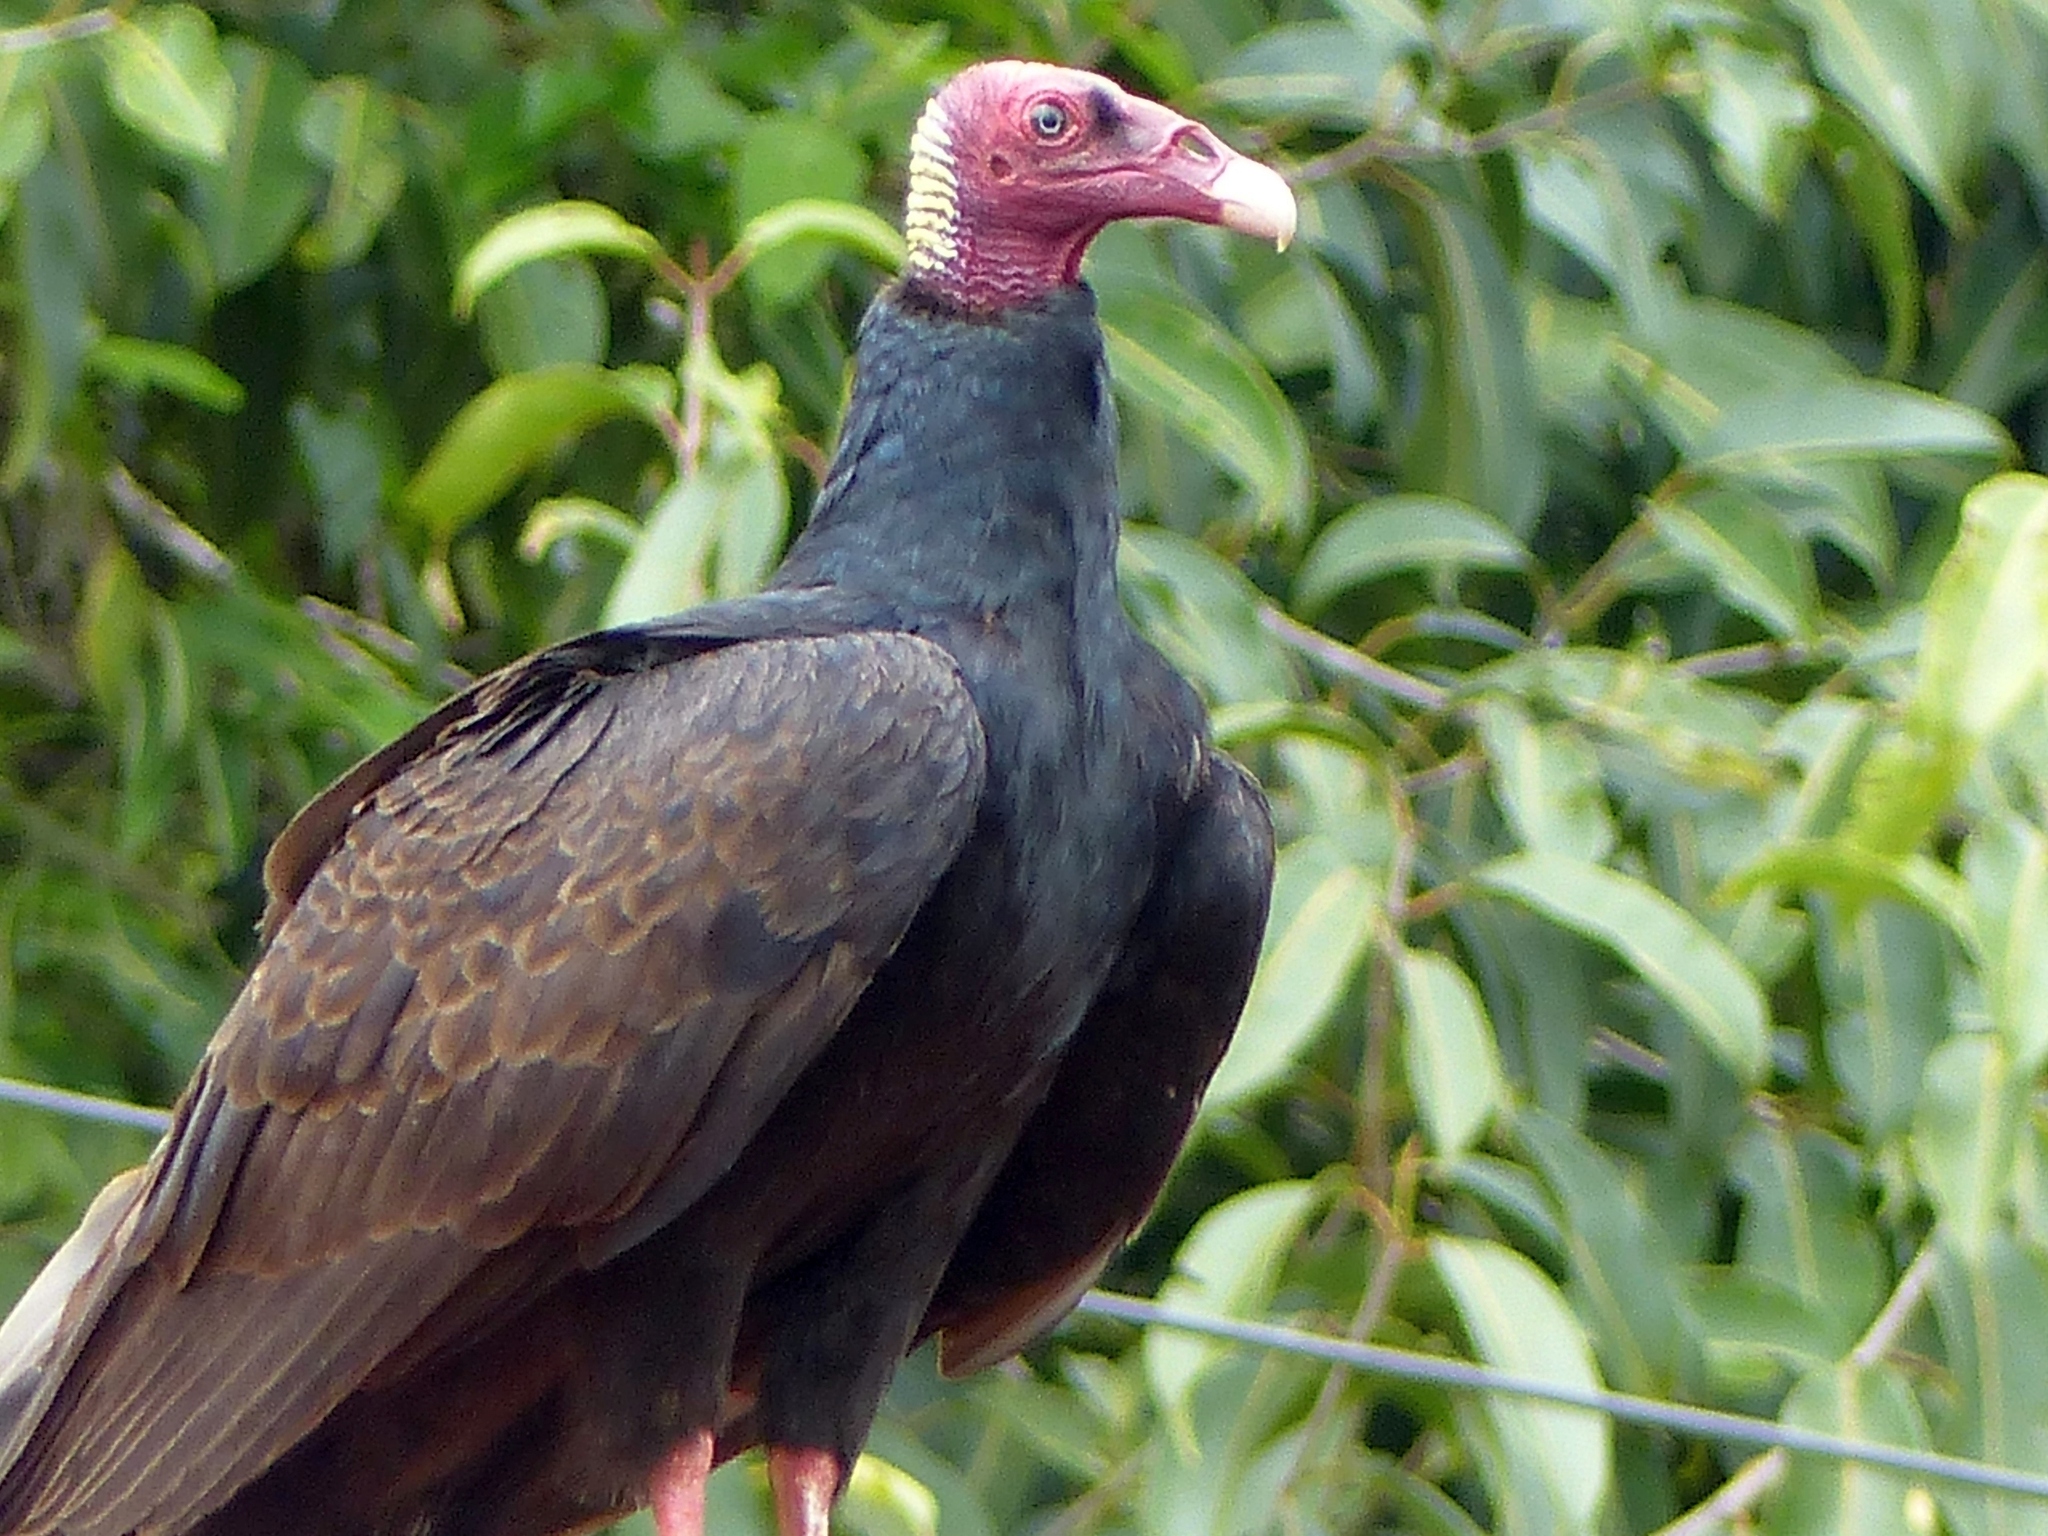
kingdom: Animalia
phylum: Chordata
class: Aves
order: Accipitriformes
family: Cathartidae
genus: Cathartes
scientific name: Cathartes aura
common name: Turkey vulture
